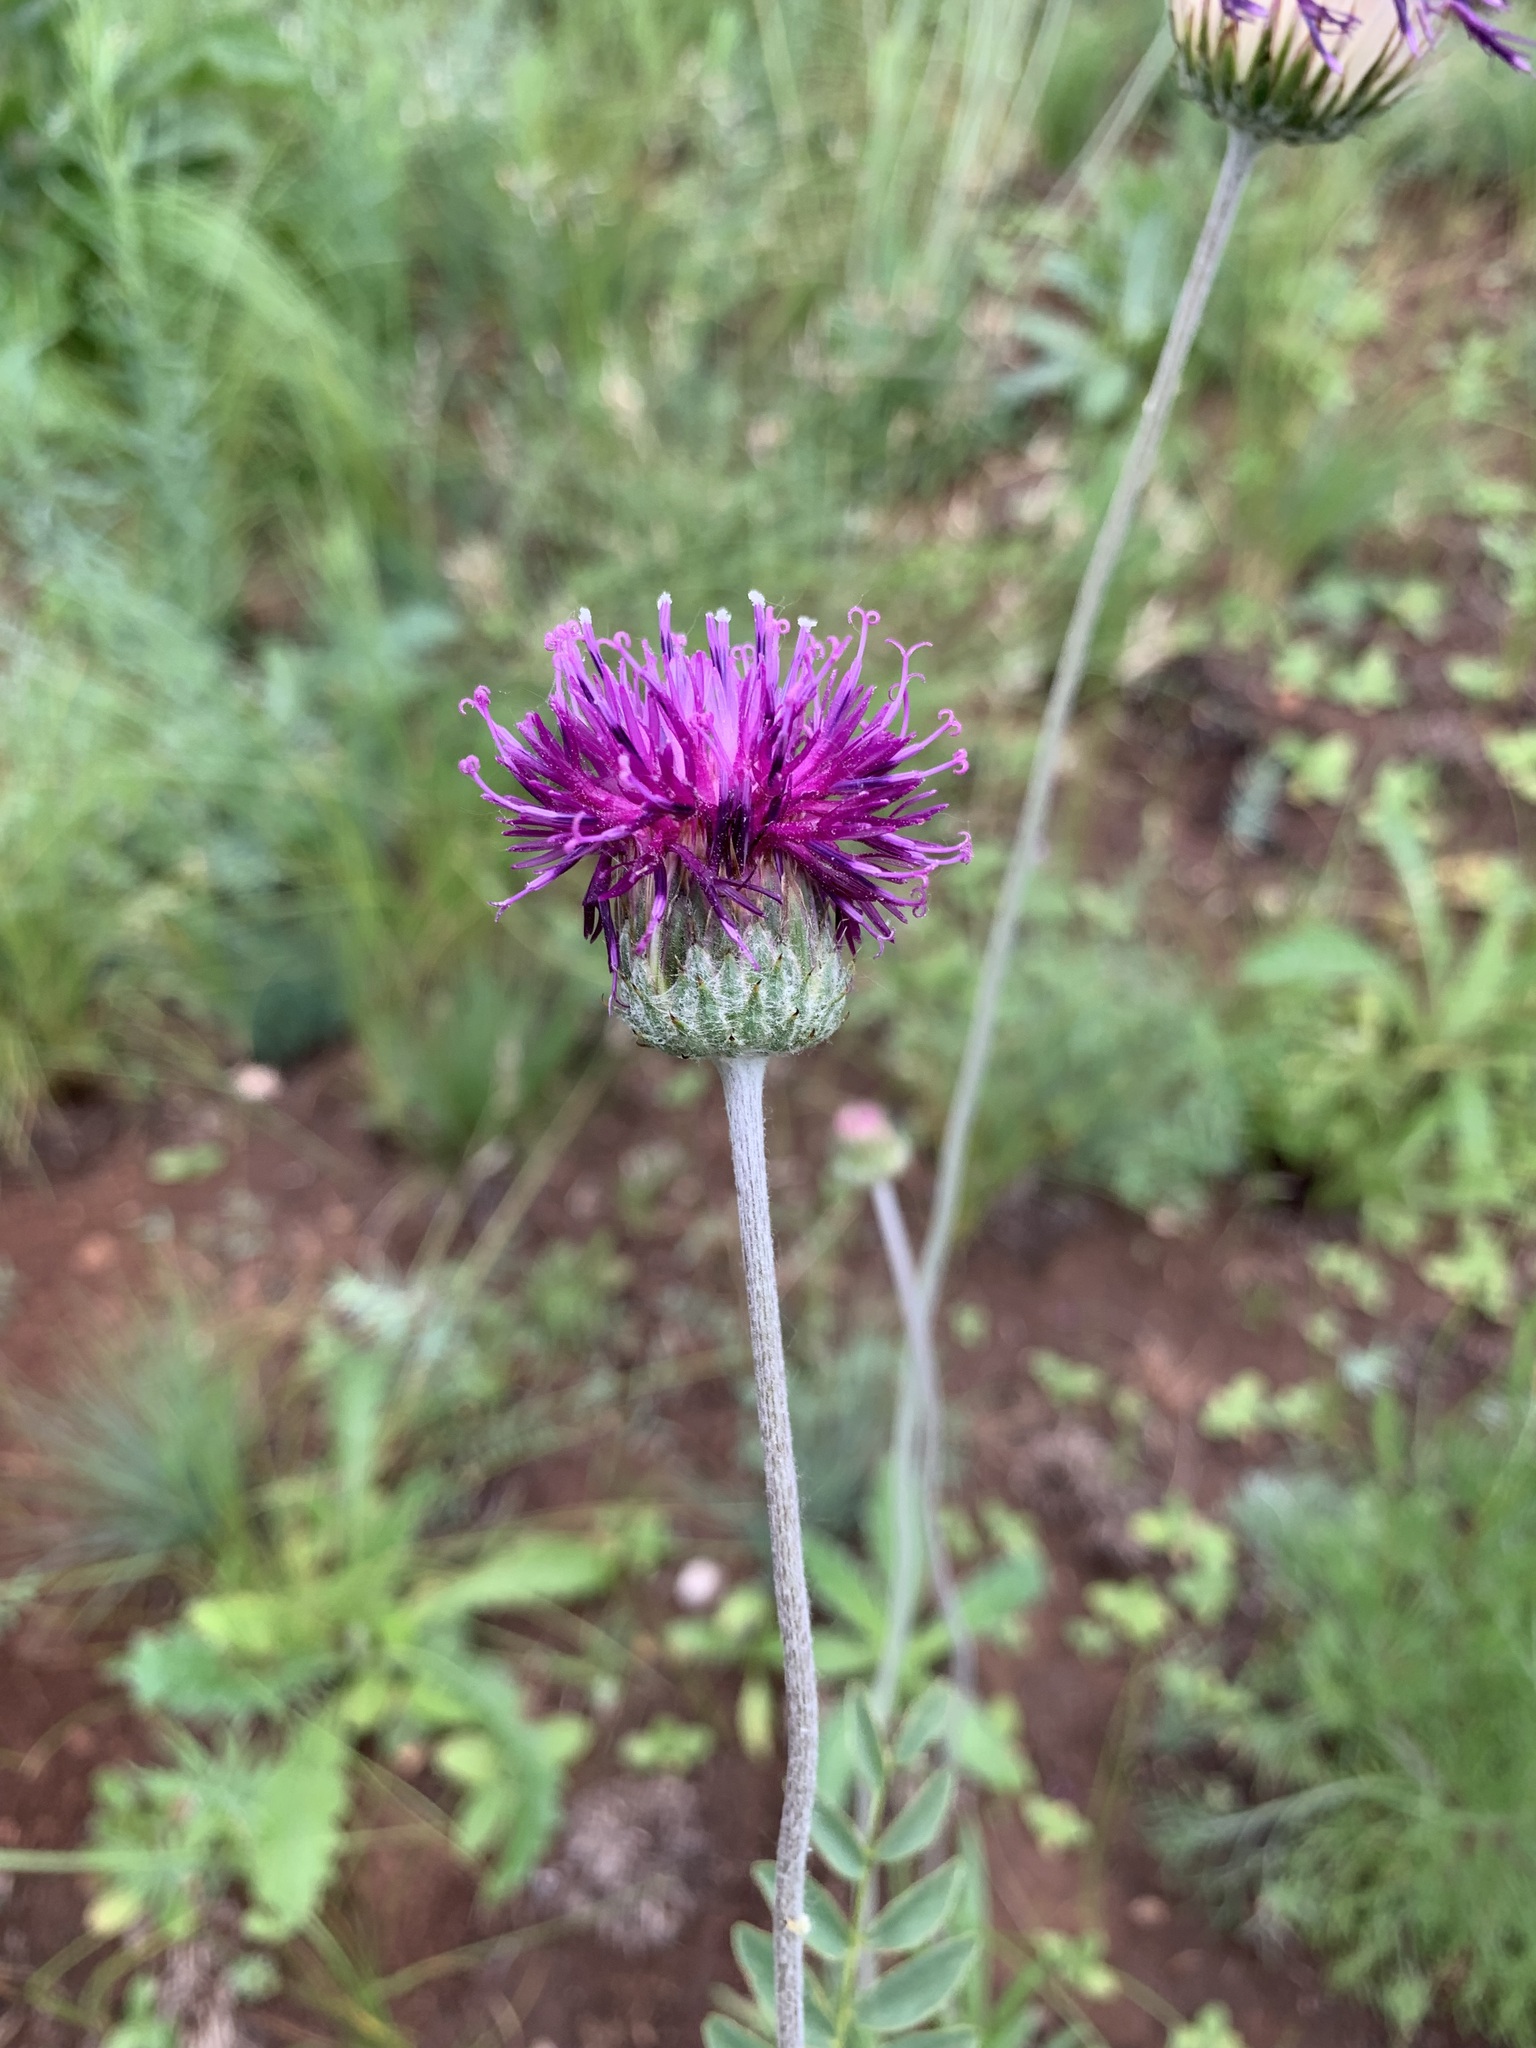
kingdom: Plantae
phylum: Tracheophyta
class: Magnoliopsida
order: Asterales
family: Asteraceae
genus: Jurinea
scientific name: Jurinea ledebourii
